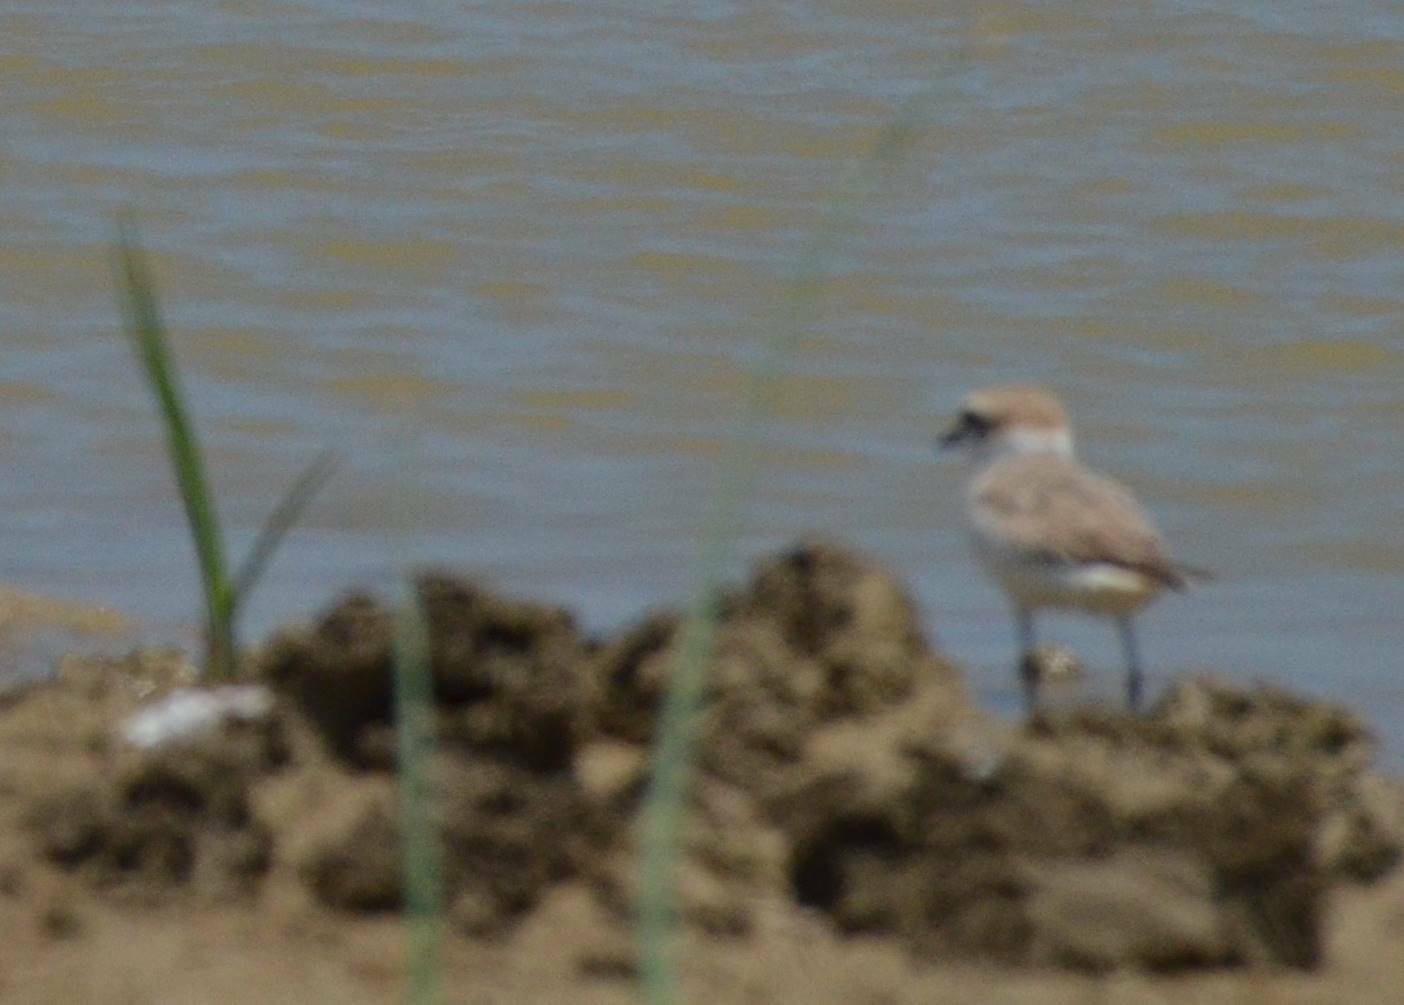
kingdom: Animalia
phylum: Chordata
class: Aves
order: Charadriiformes
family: Charadriidae
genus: Charadrius
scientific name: Charadrius alexandrinus
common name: Kentish plover
